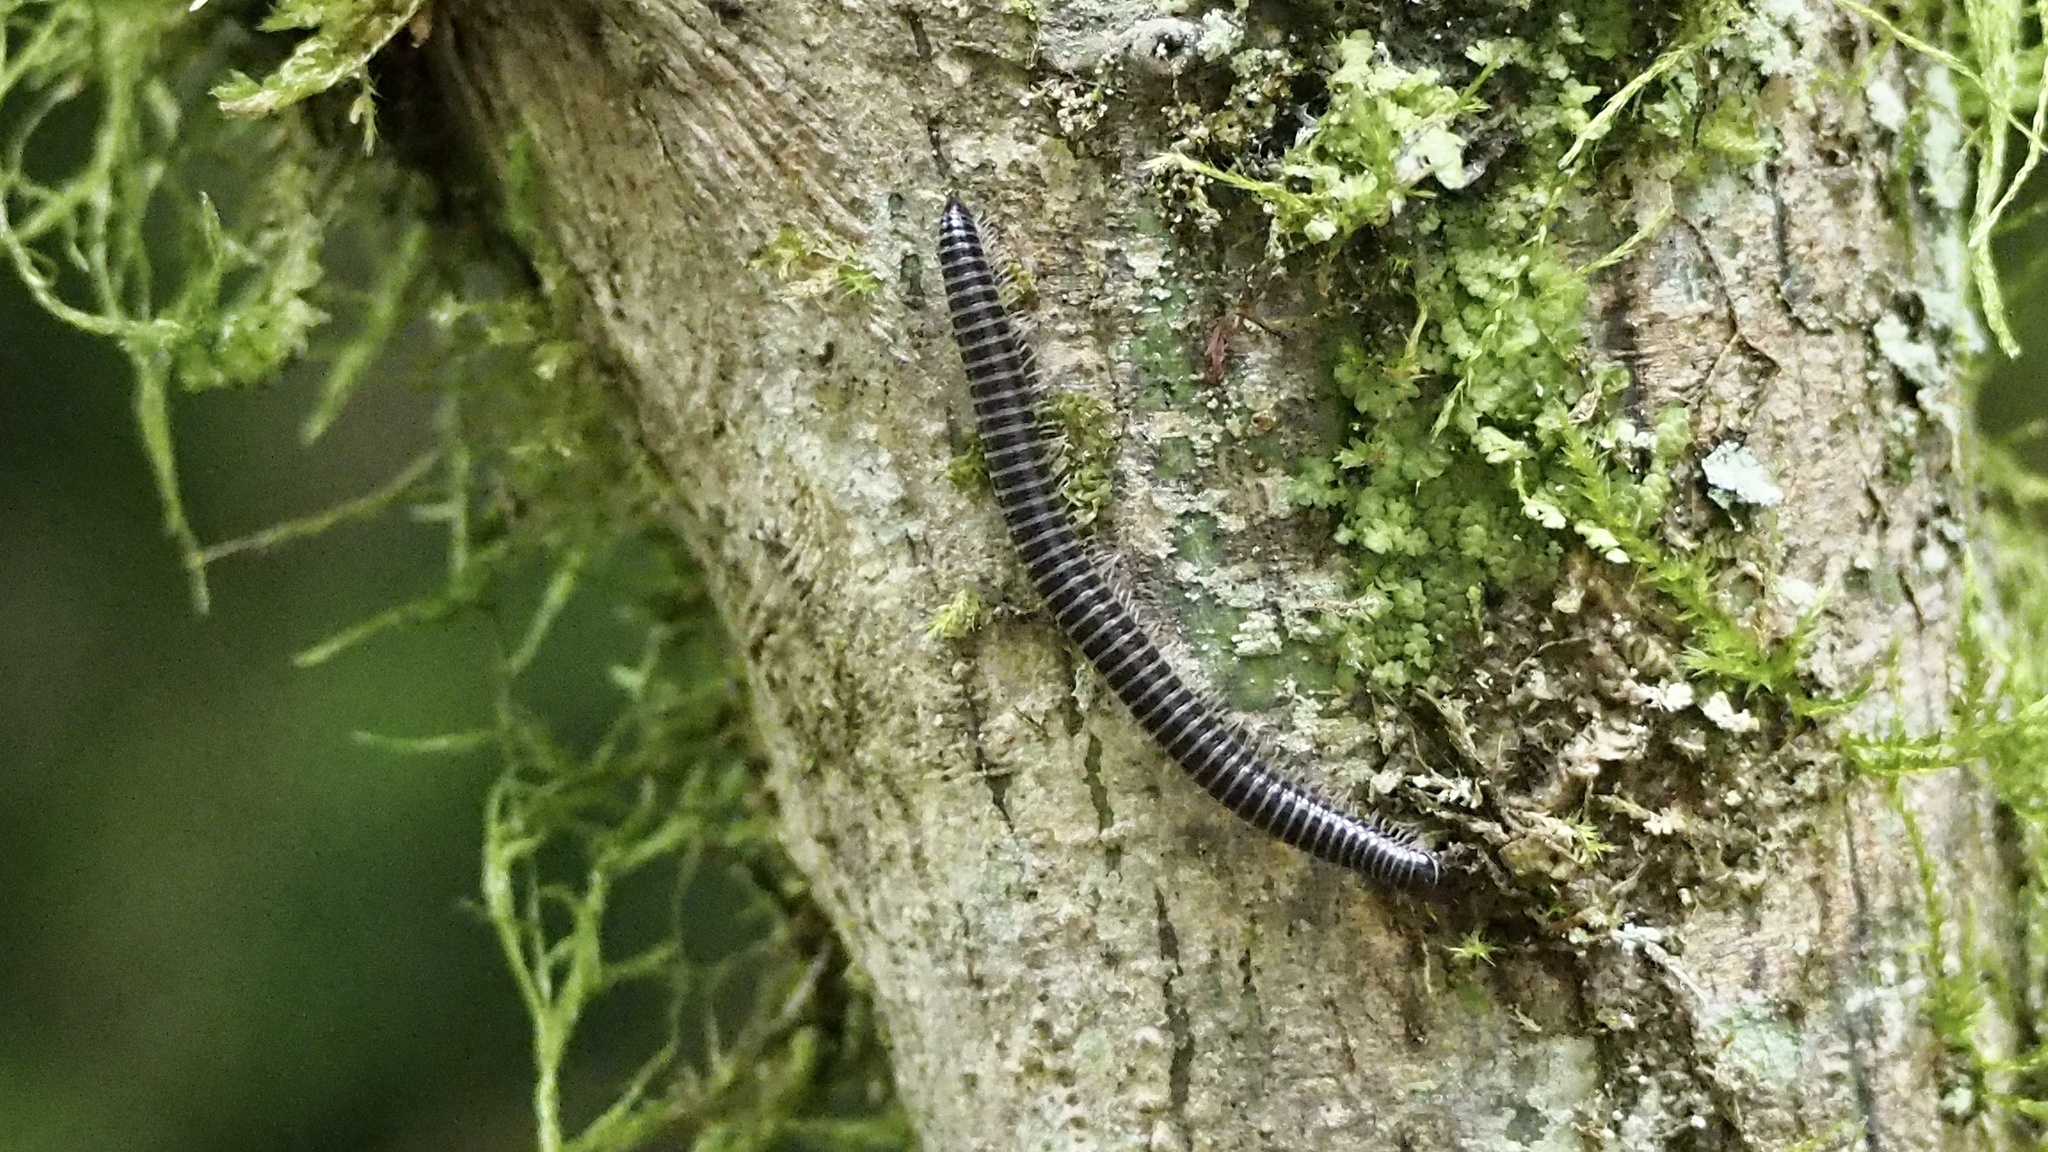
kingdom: Animalia
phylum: Arthropoda
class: Diplopoda
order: Julida
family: Parajulidae
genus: Karteroiulus
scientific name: Karteroiulus niger
